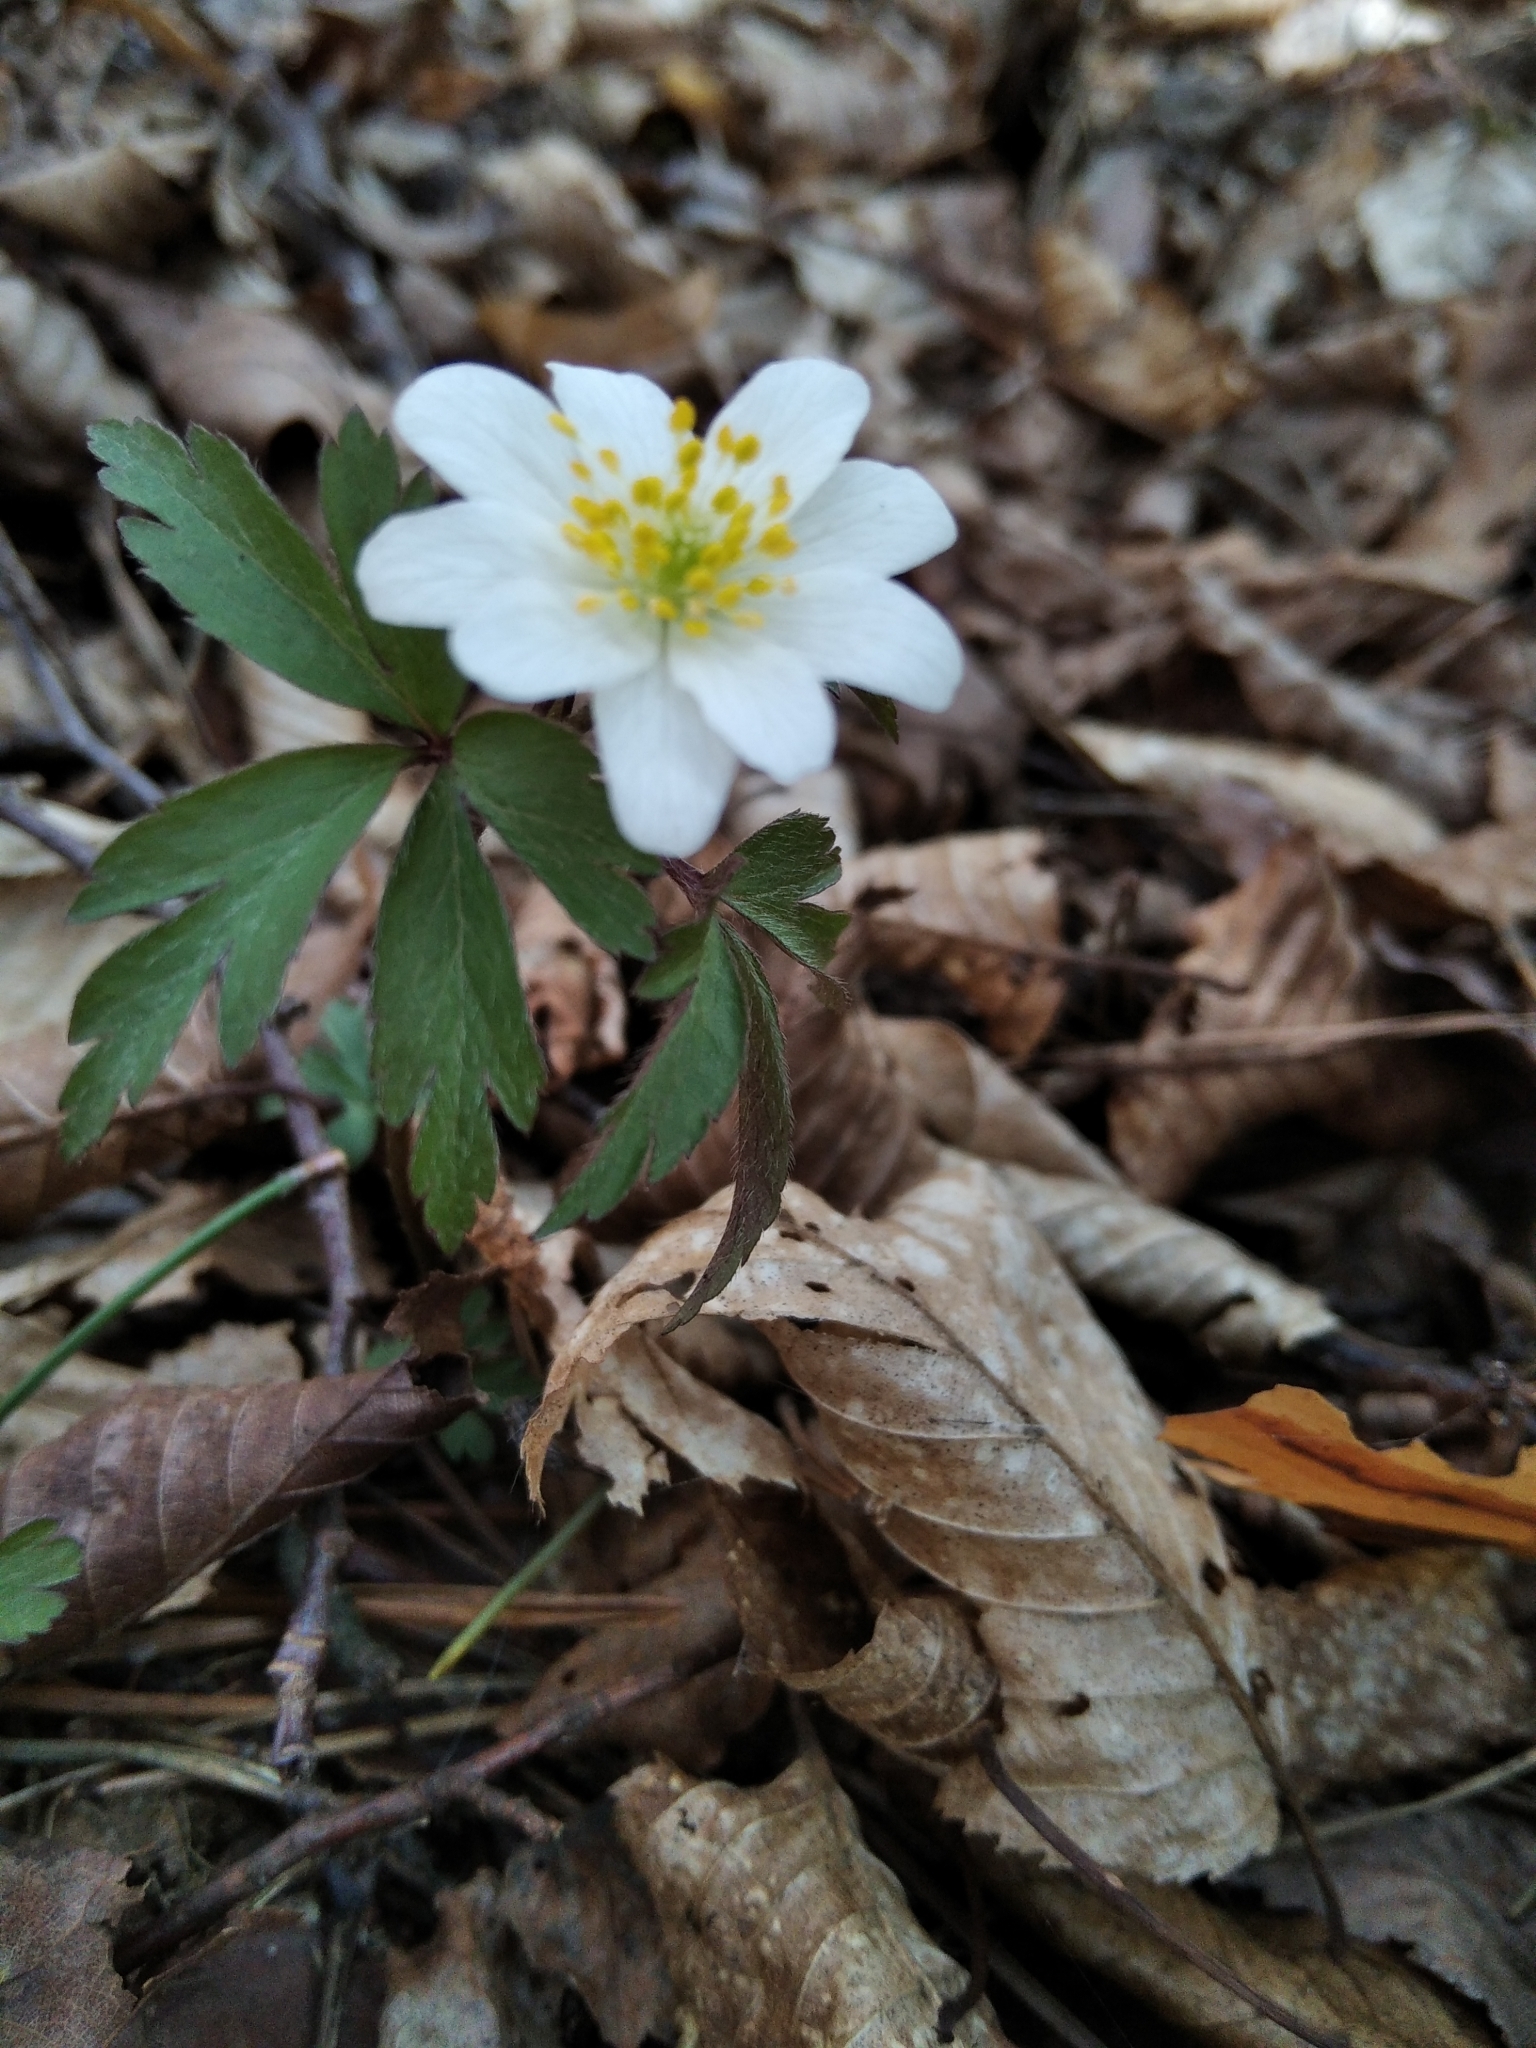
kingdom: Plantae
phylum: Tracheophyta
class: Magnoliopsida
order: Ranunculales
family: Ranunculaceae
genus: Anemone
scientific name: Anemone nemorosa
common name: Wood anemone
